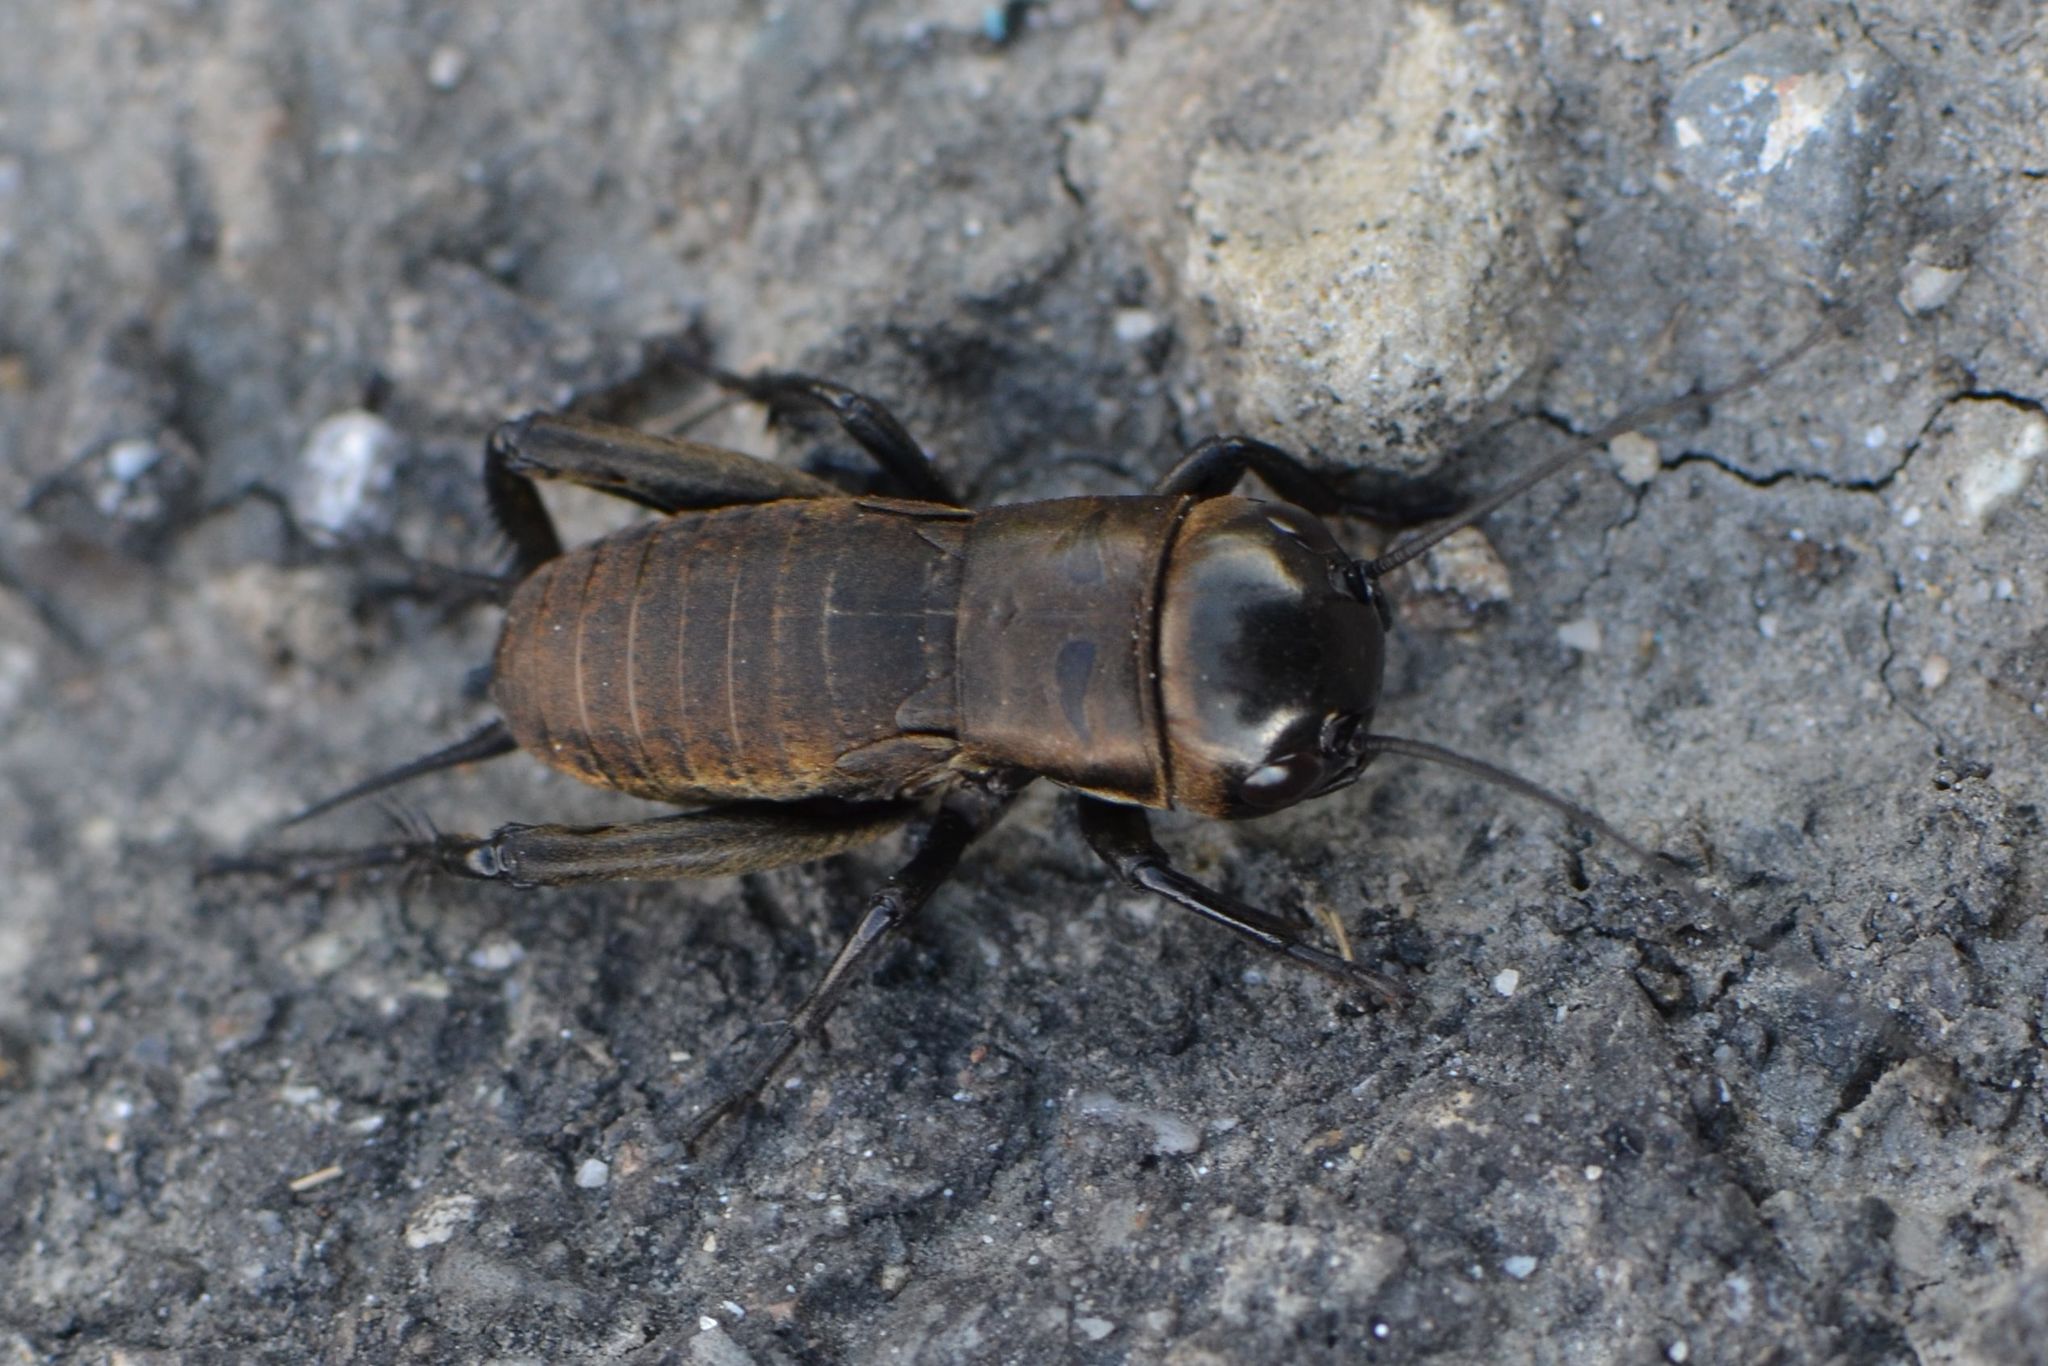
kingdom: Animalia
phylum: Arthropoda
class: Insecta
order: Orthoptera
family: Gryllidae
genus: Gryllus
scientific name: Gryllus campestris
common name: Field cricket
